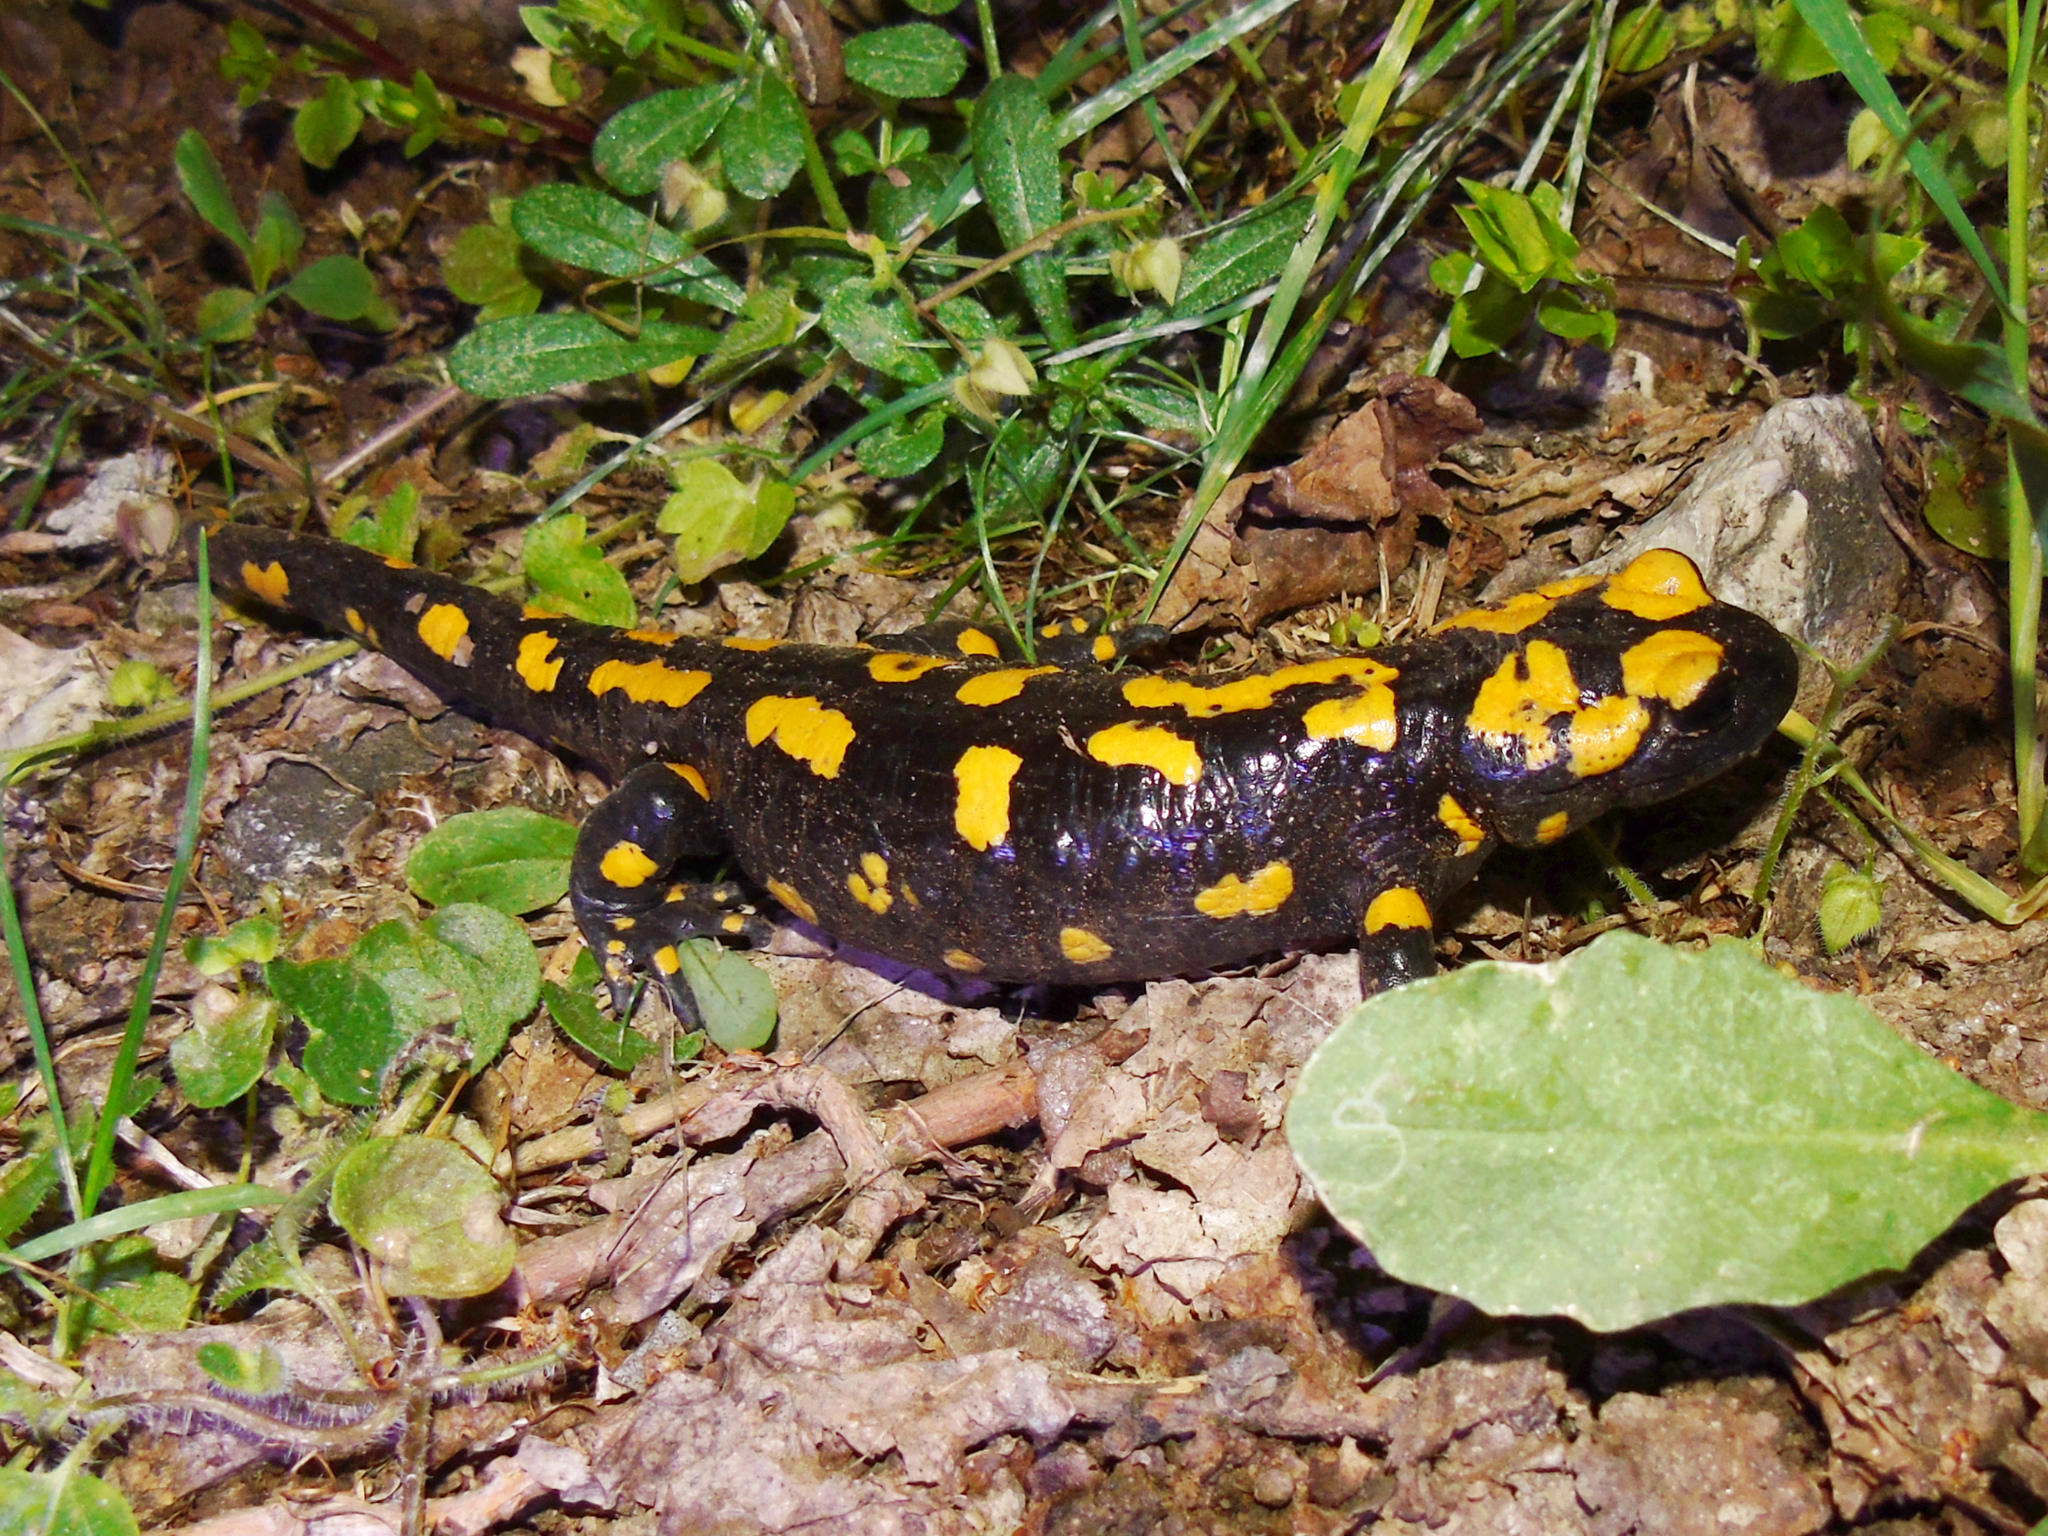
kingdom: Animalia
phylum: Chordata
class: Amphibia
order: Caudata
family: Salamandridae
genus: Salamandra
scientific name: Salamandra infraimmaculata
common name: Near-eastern fire salamander
